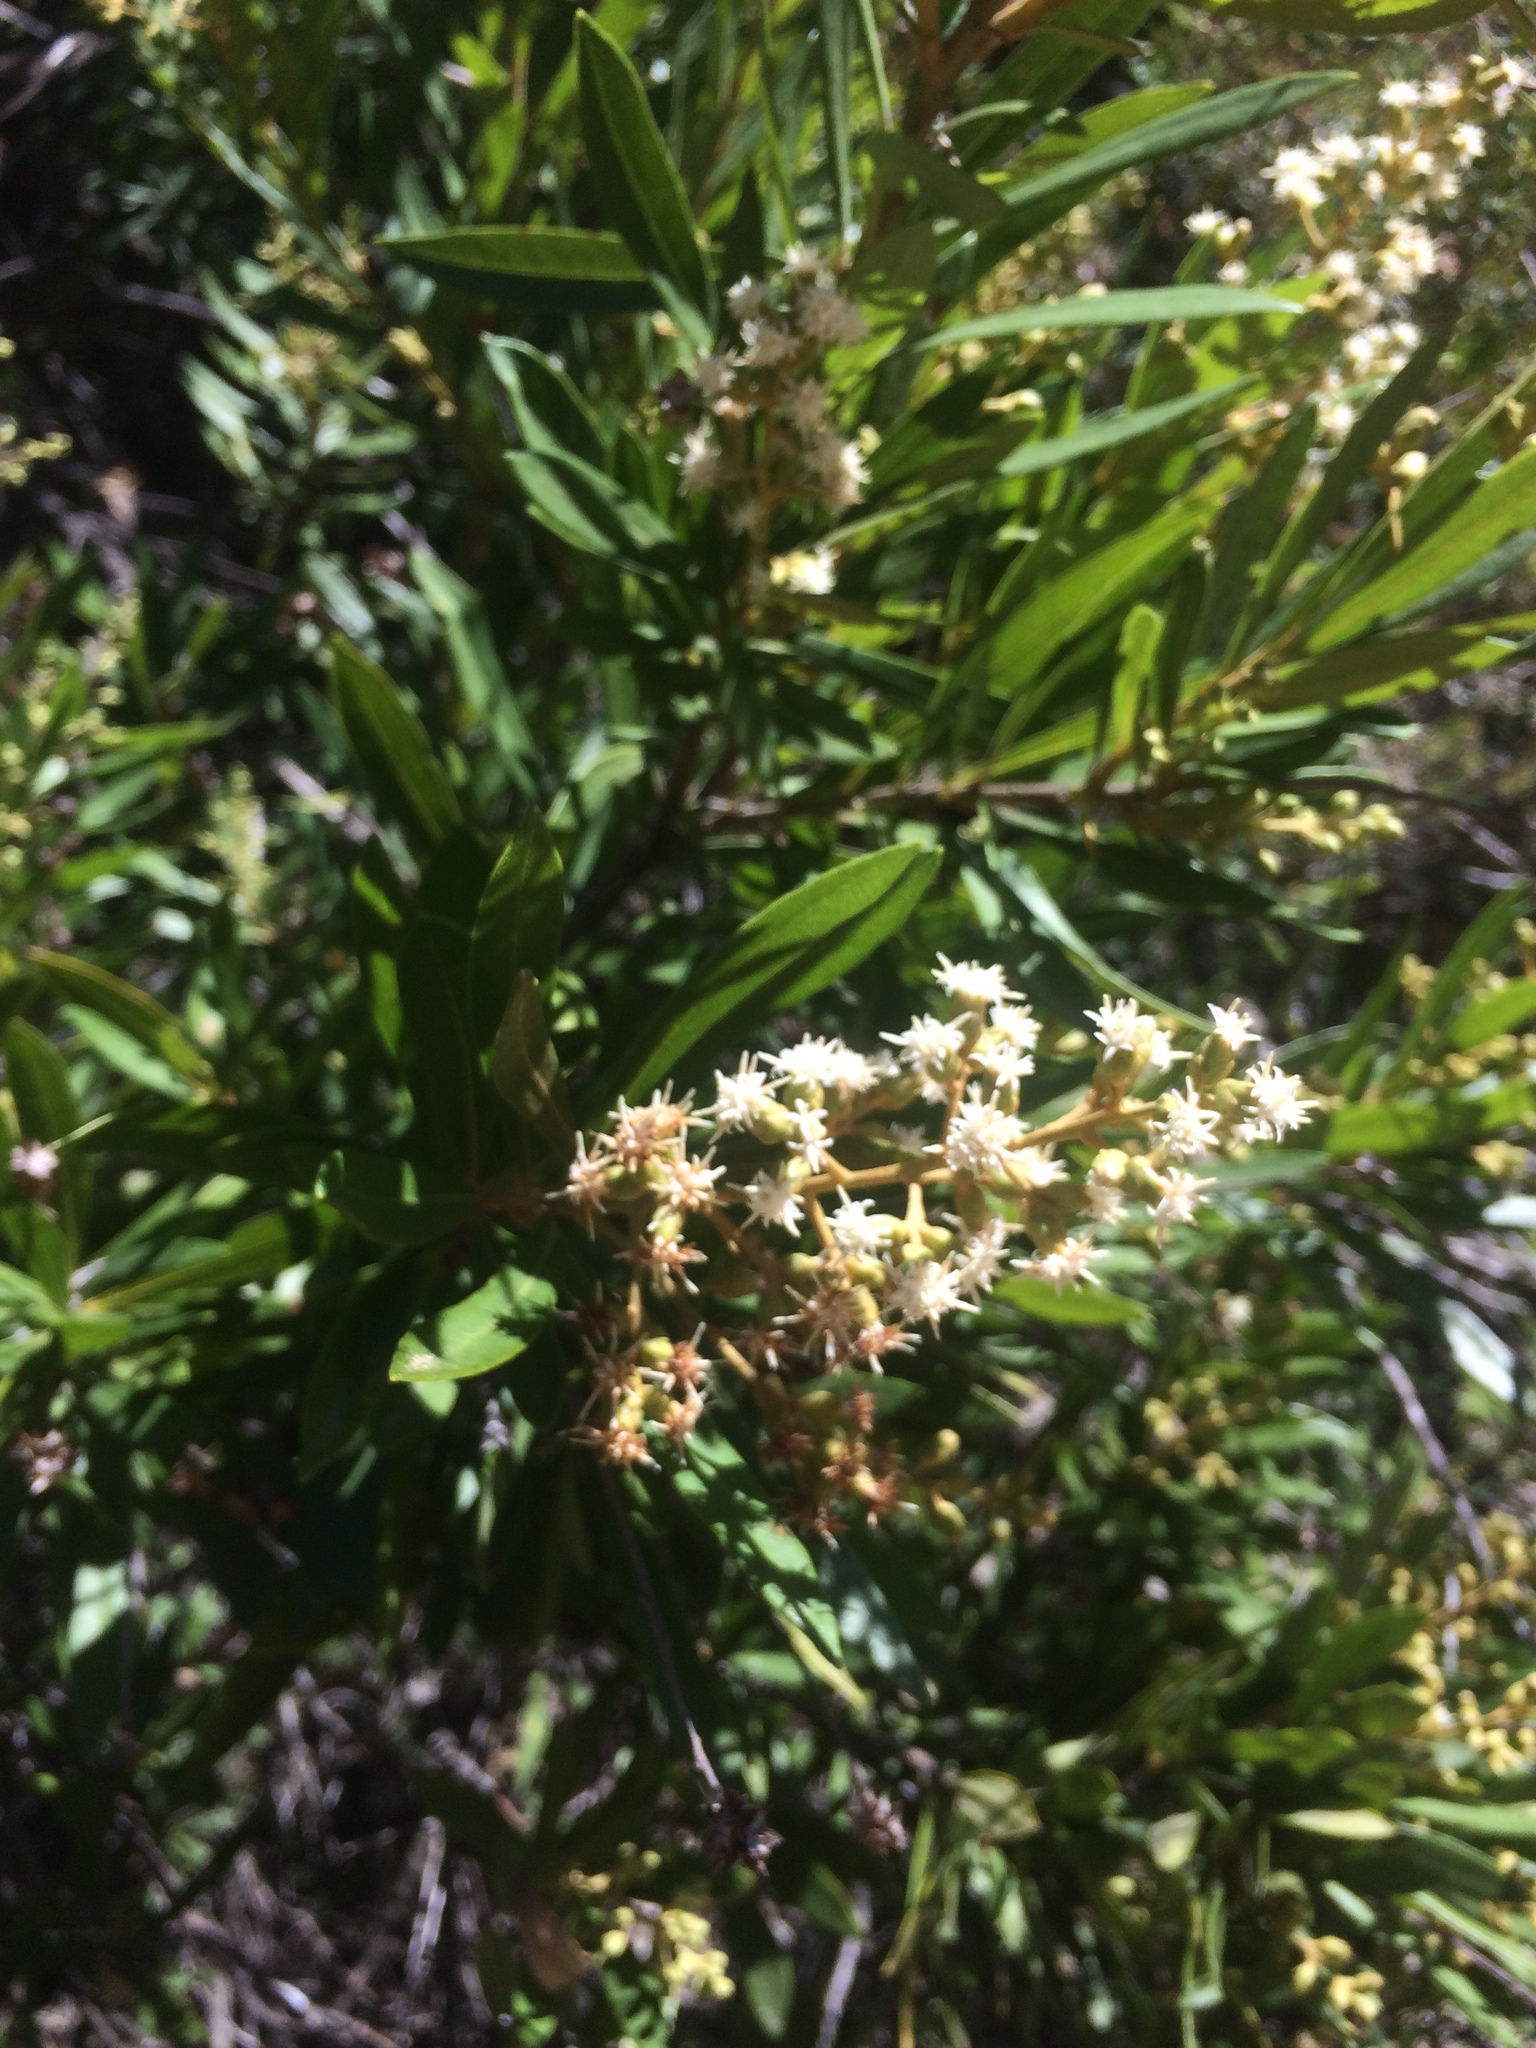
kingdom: Plantae
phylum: Tracheophyta
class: Magnoliopsida
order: Asterales
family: Asteraceae
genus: Brachylaena
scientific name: Brachylaena neriifolia
